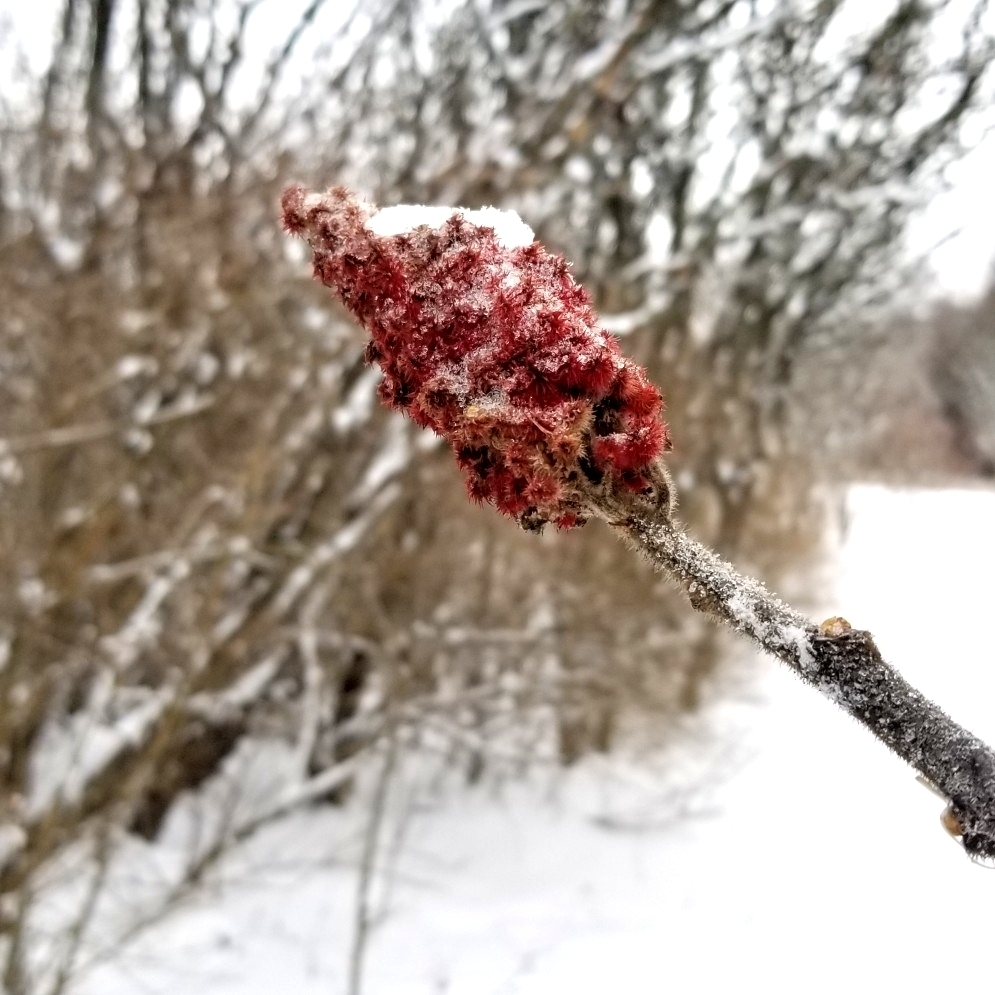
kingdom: Plantae
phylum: Tracheophyta
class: Magnoliopsida
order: Sapindales
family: Anacardiaceae
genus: Rhus
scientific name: Rhus typhina
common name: Staghorn sumac
